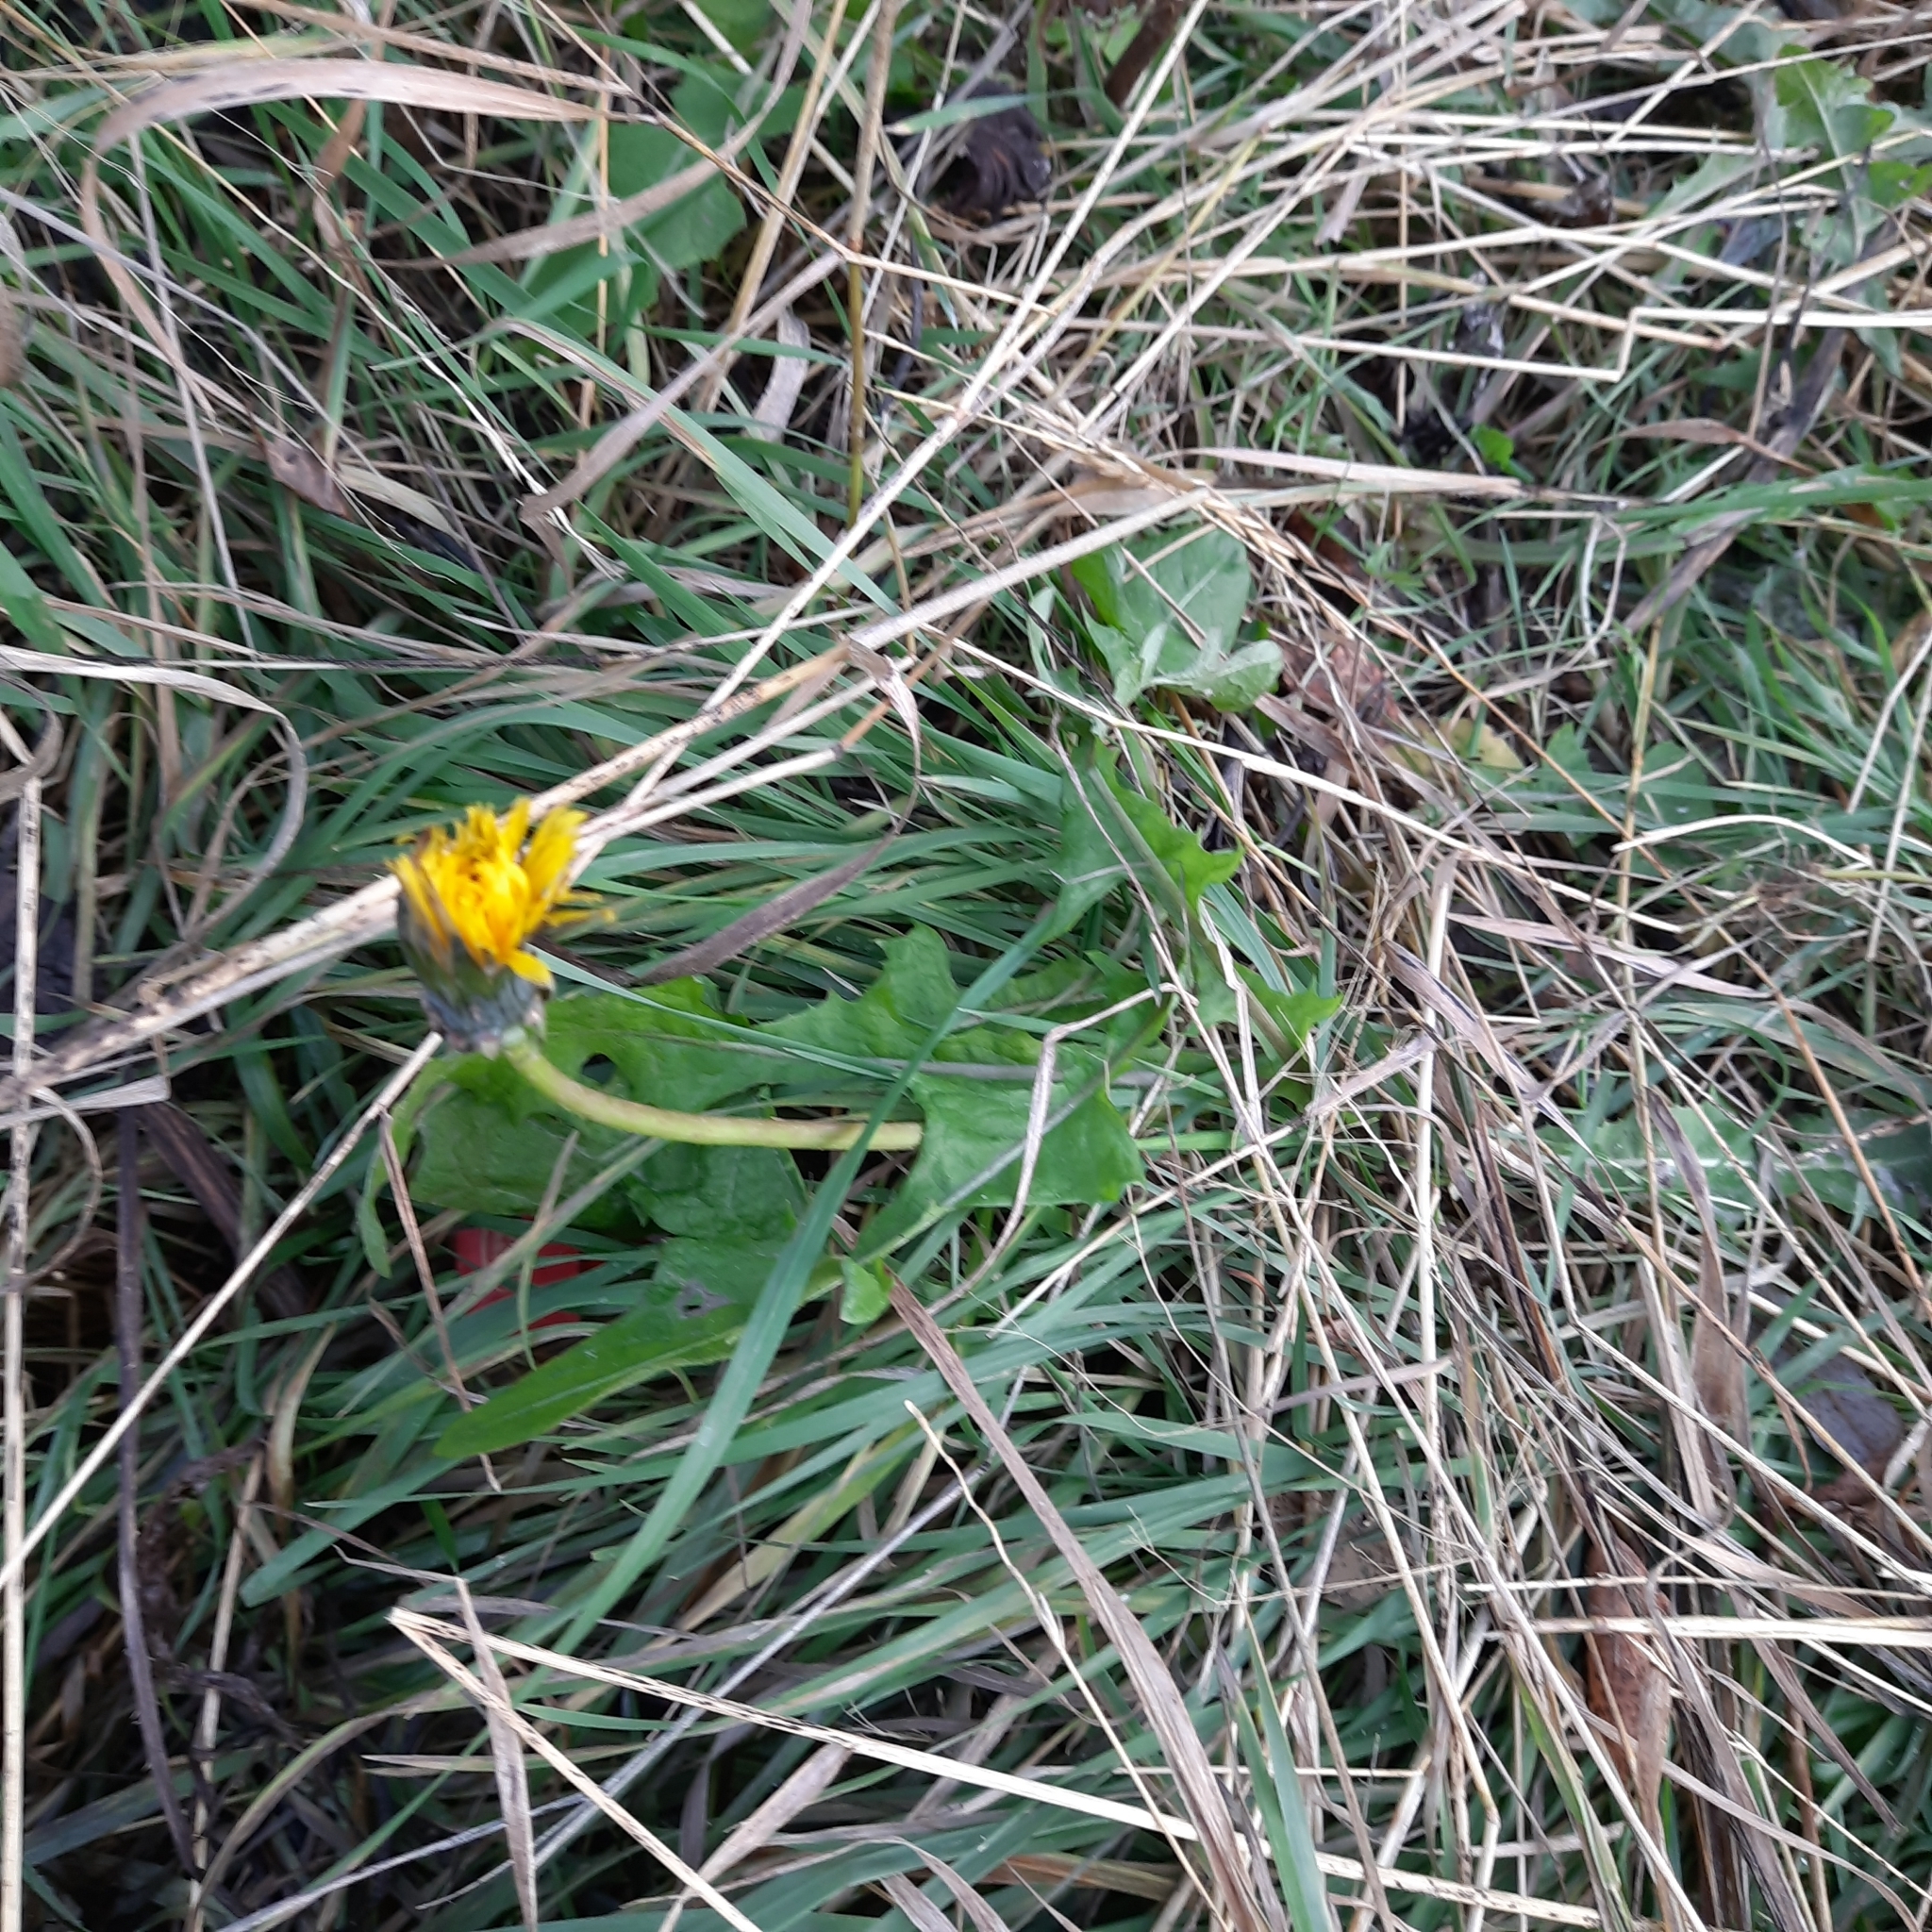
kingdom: Plantae
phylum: Tracheophyta
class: Magnoliopsida
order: Asterales
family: Asteraceae
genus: Taraxacum
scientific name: Taraxacum officinale
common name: Common dandelion
